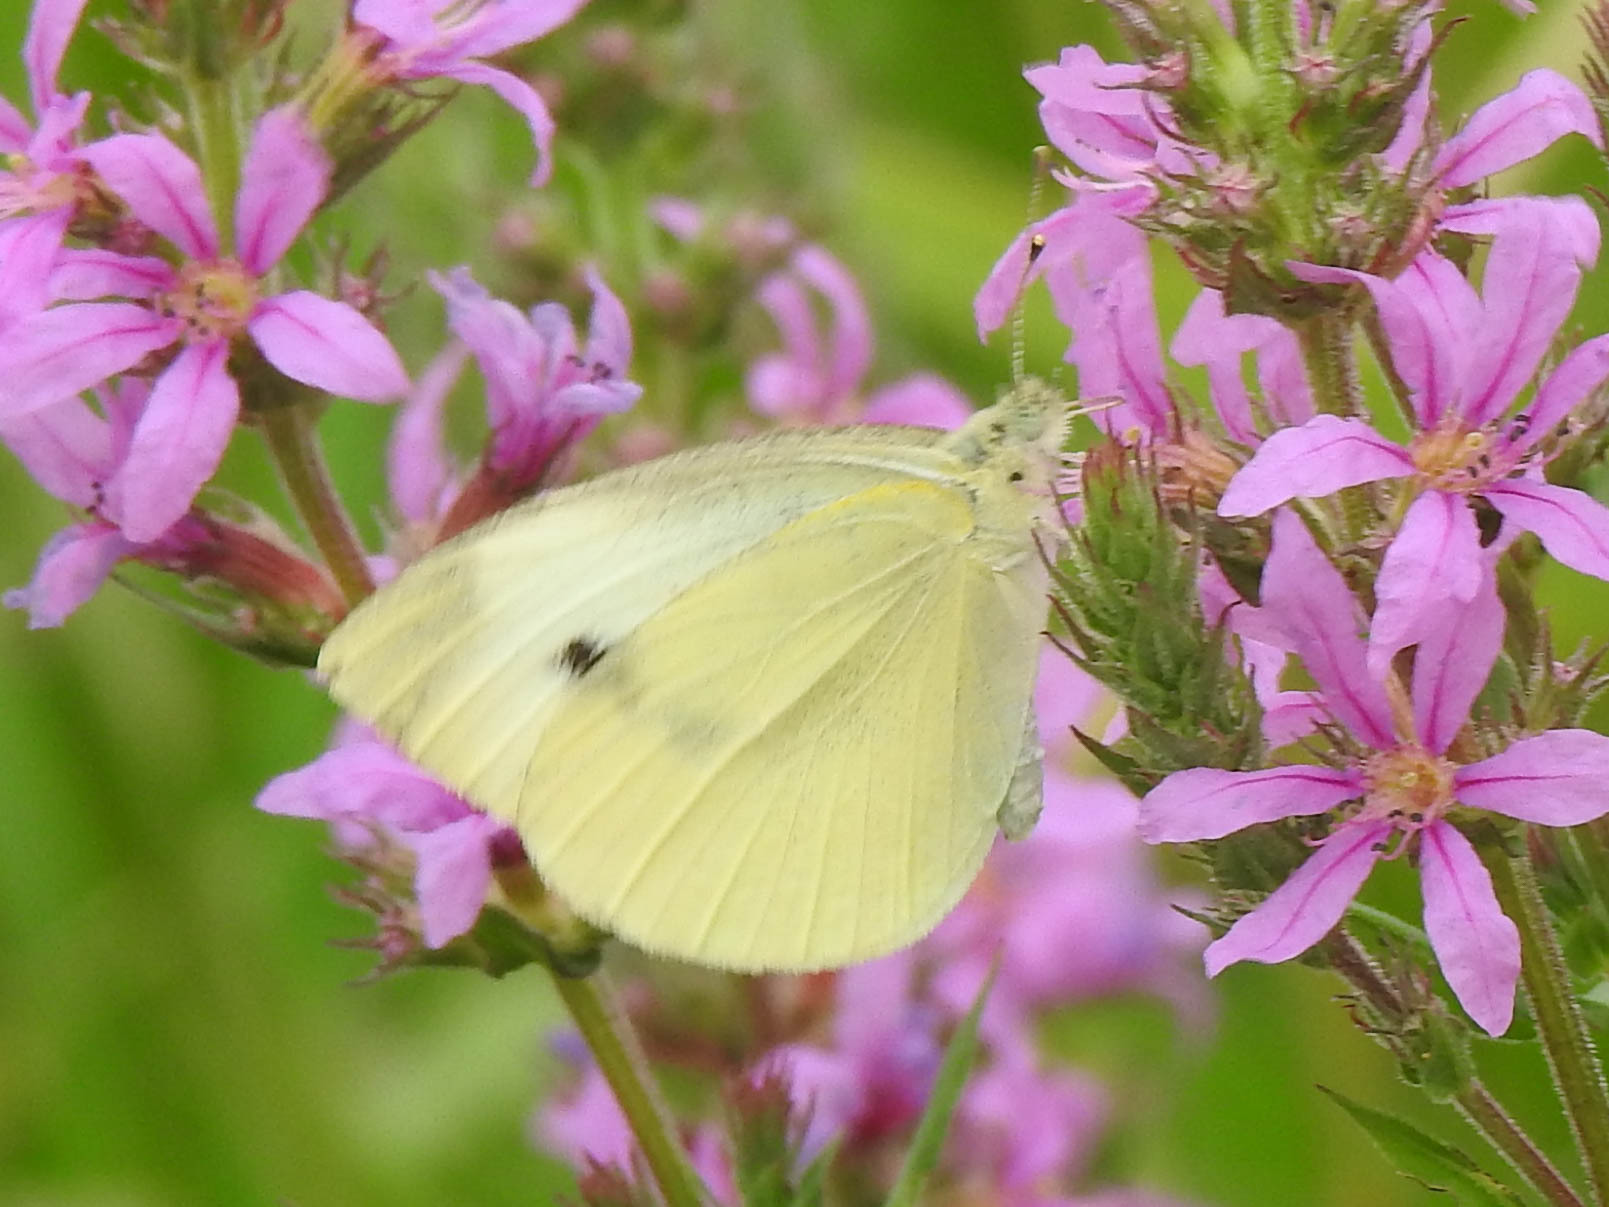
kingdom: Animalia
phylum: Arthropoda
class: Insecta
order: Lepidoptera
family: Pieridae
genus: Pieris
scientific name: Pieris rapae
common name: Small white
